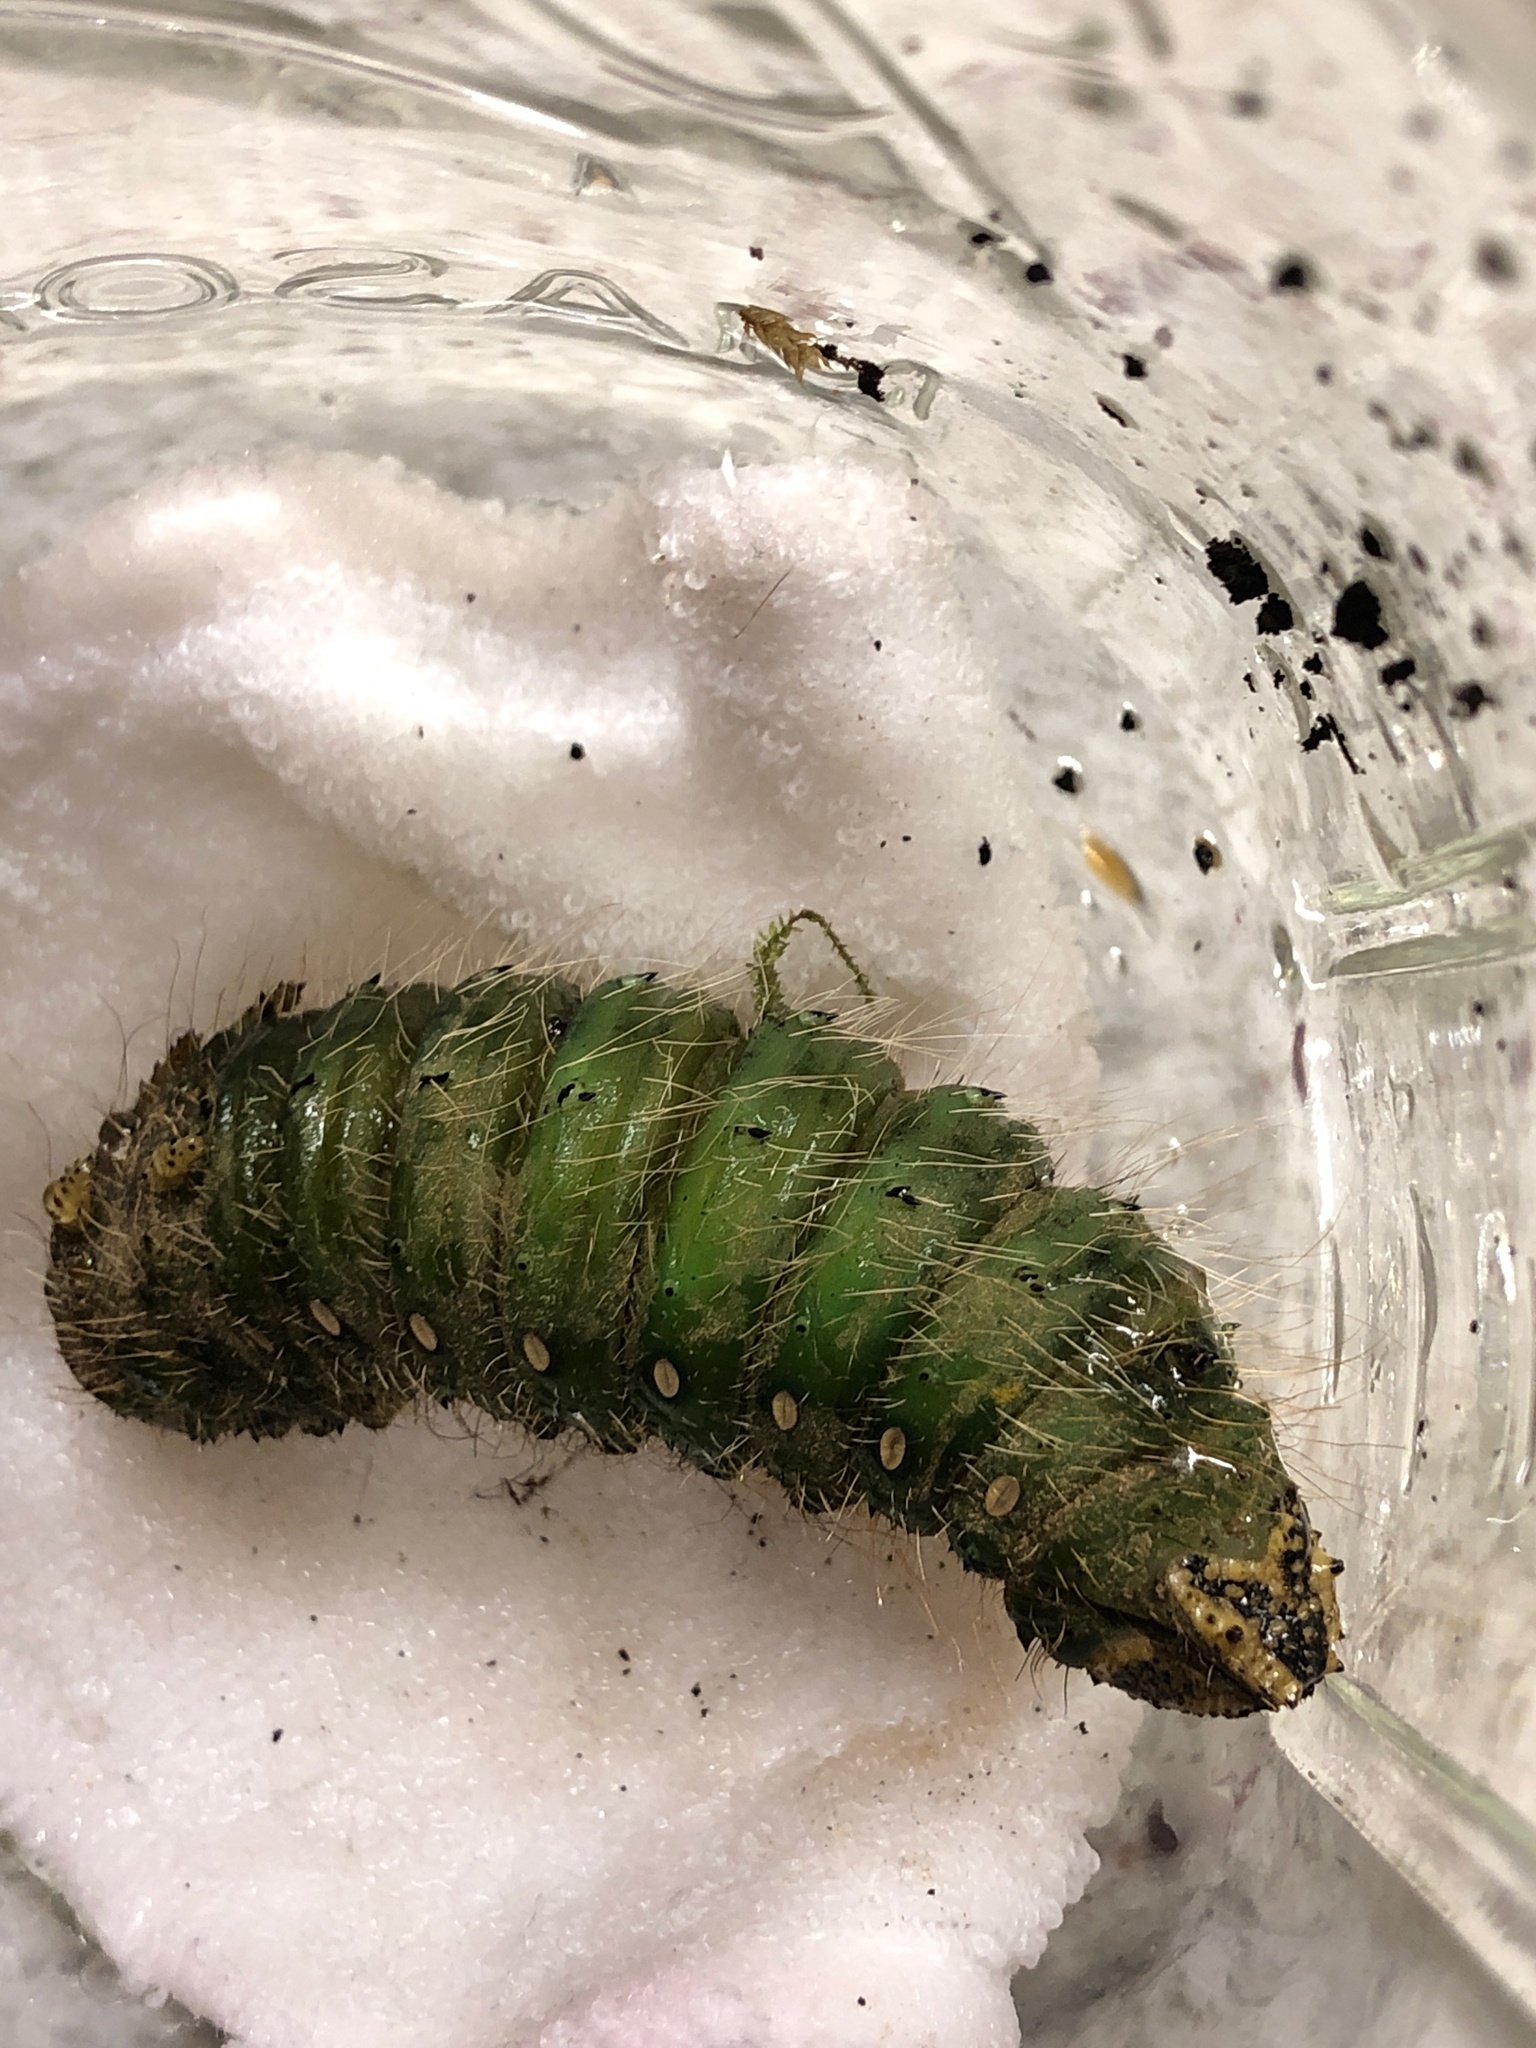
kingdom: Animalia
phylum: Arthropoda
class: Insecta
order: Lepidoptera
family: Saturniidae
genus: Eacles
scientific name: Eacles imperialis
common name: Imperial moth
